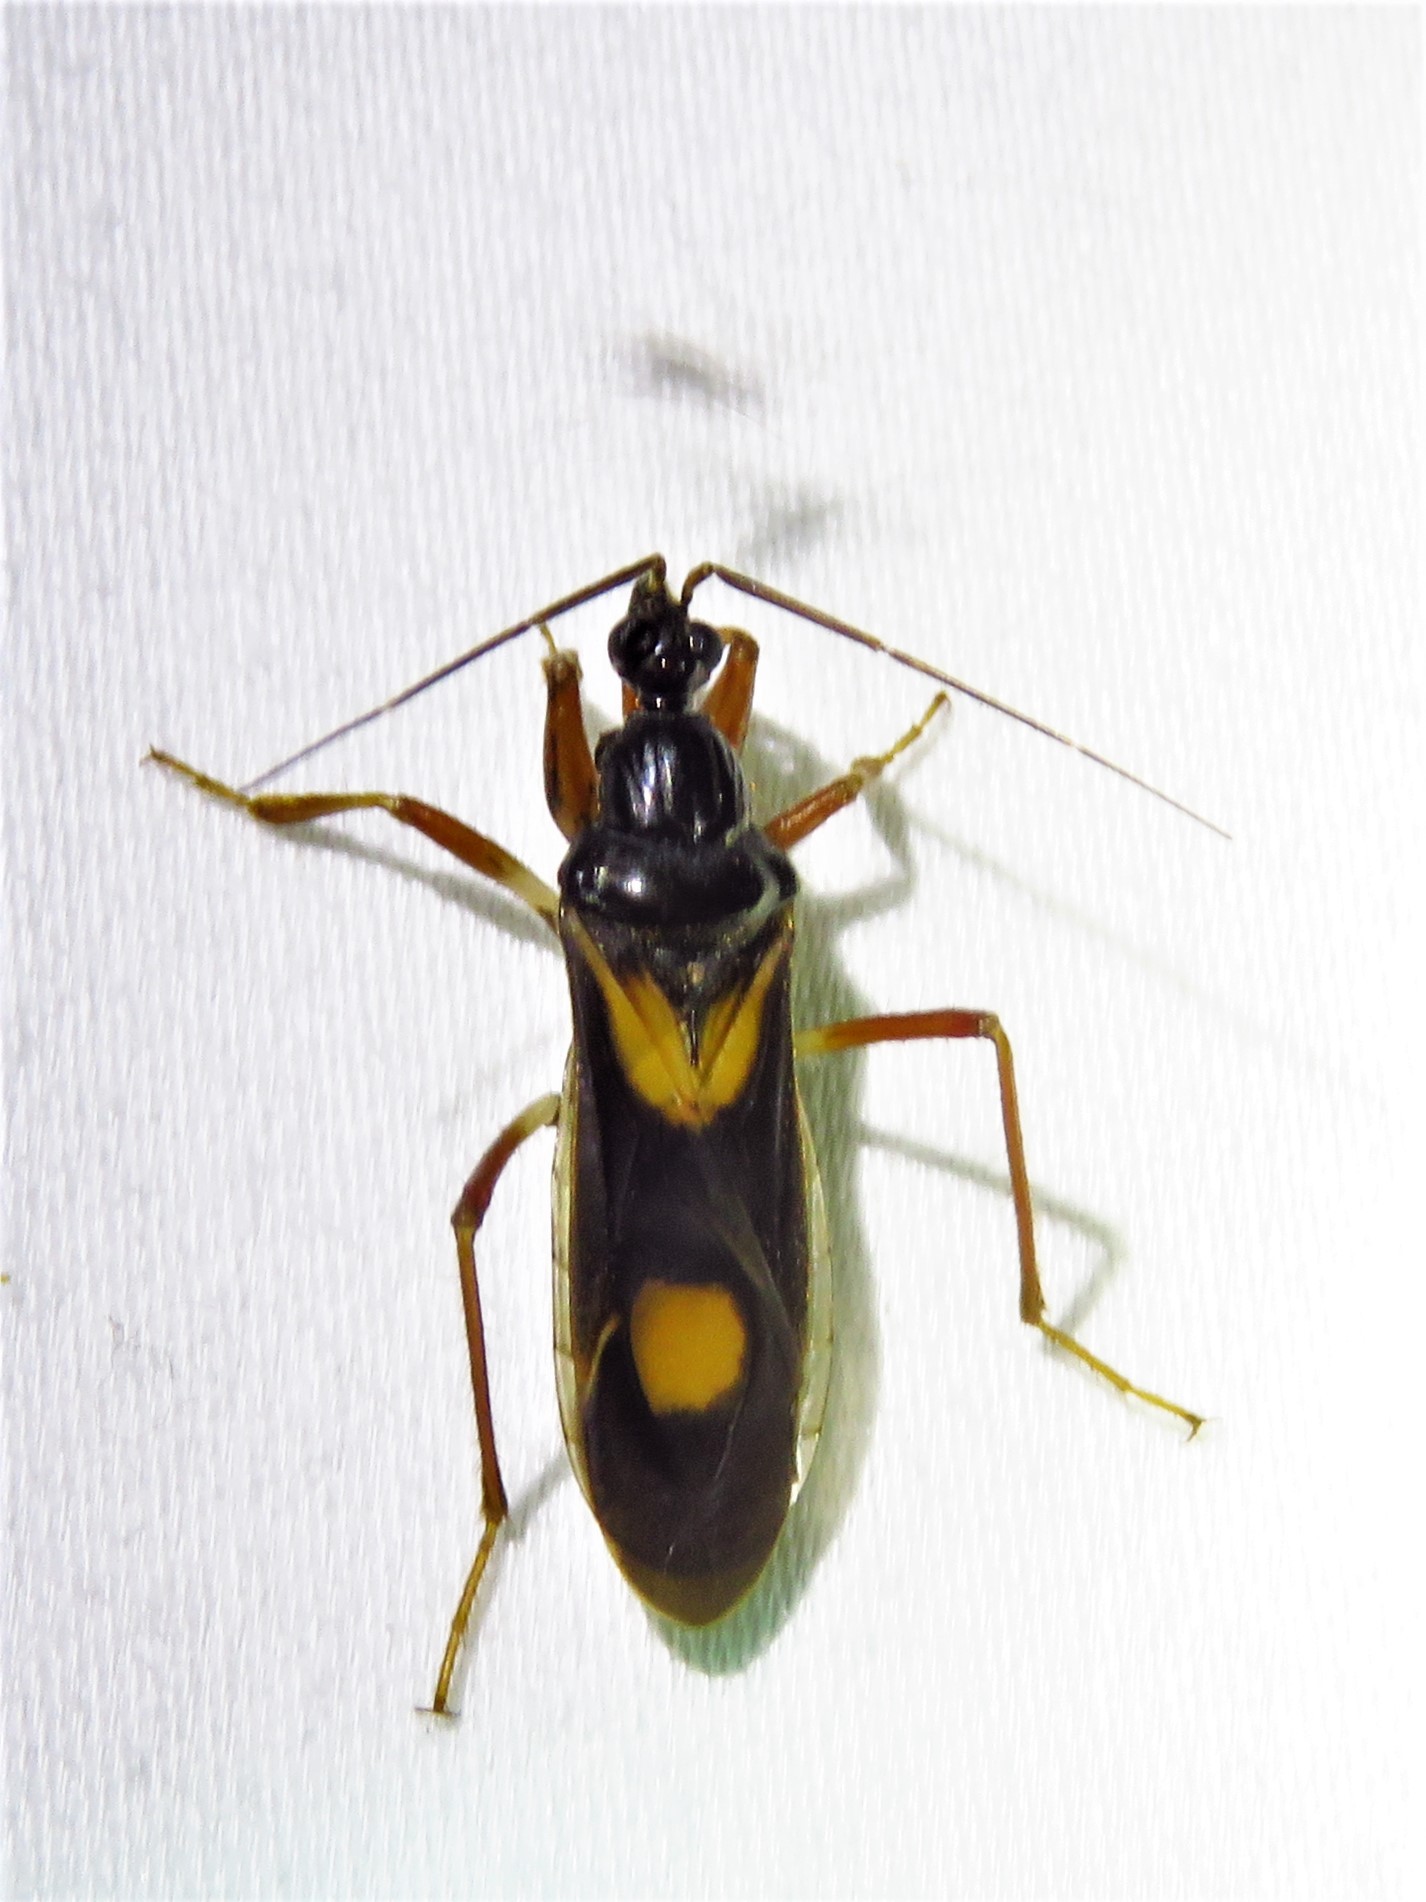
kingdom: Animalia
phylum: Arthropoda
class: Insecta
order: Hemiptera
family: Reduviidae
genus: Rasahus
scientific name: Rasahus hamatus
